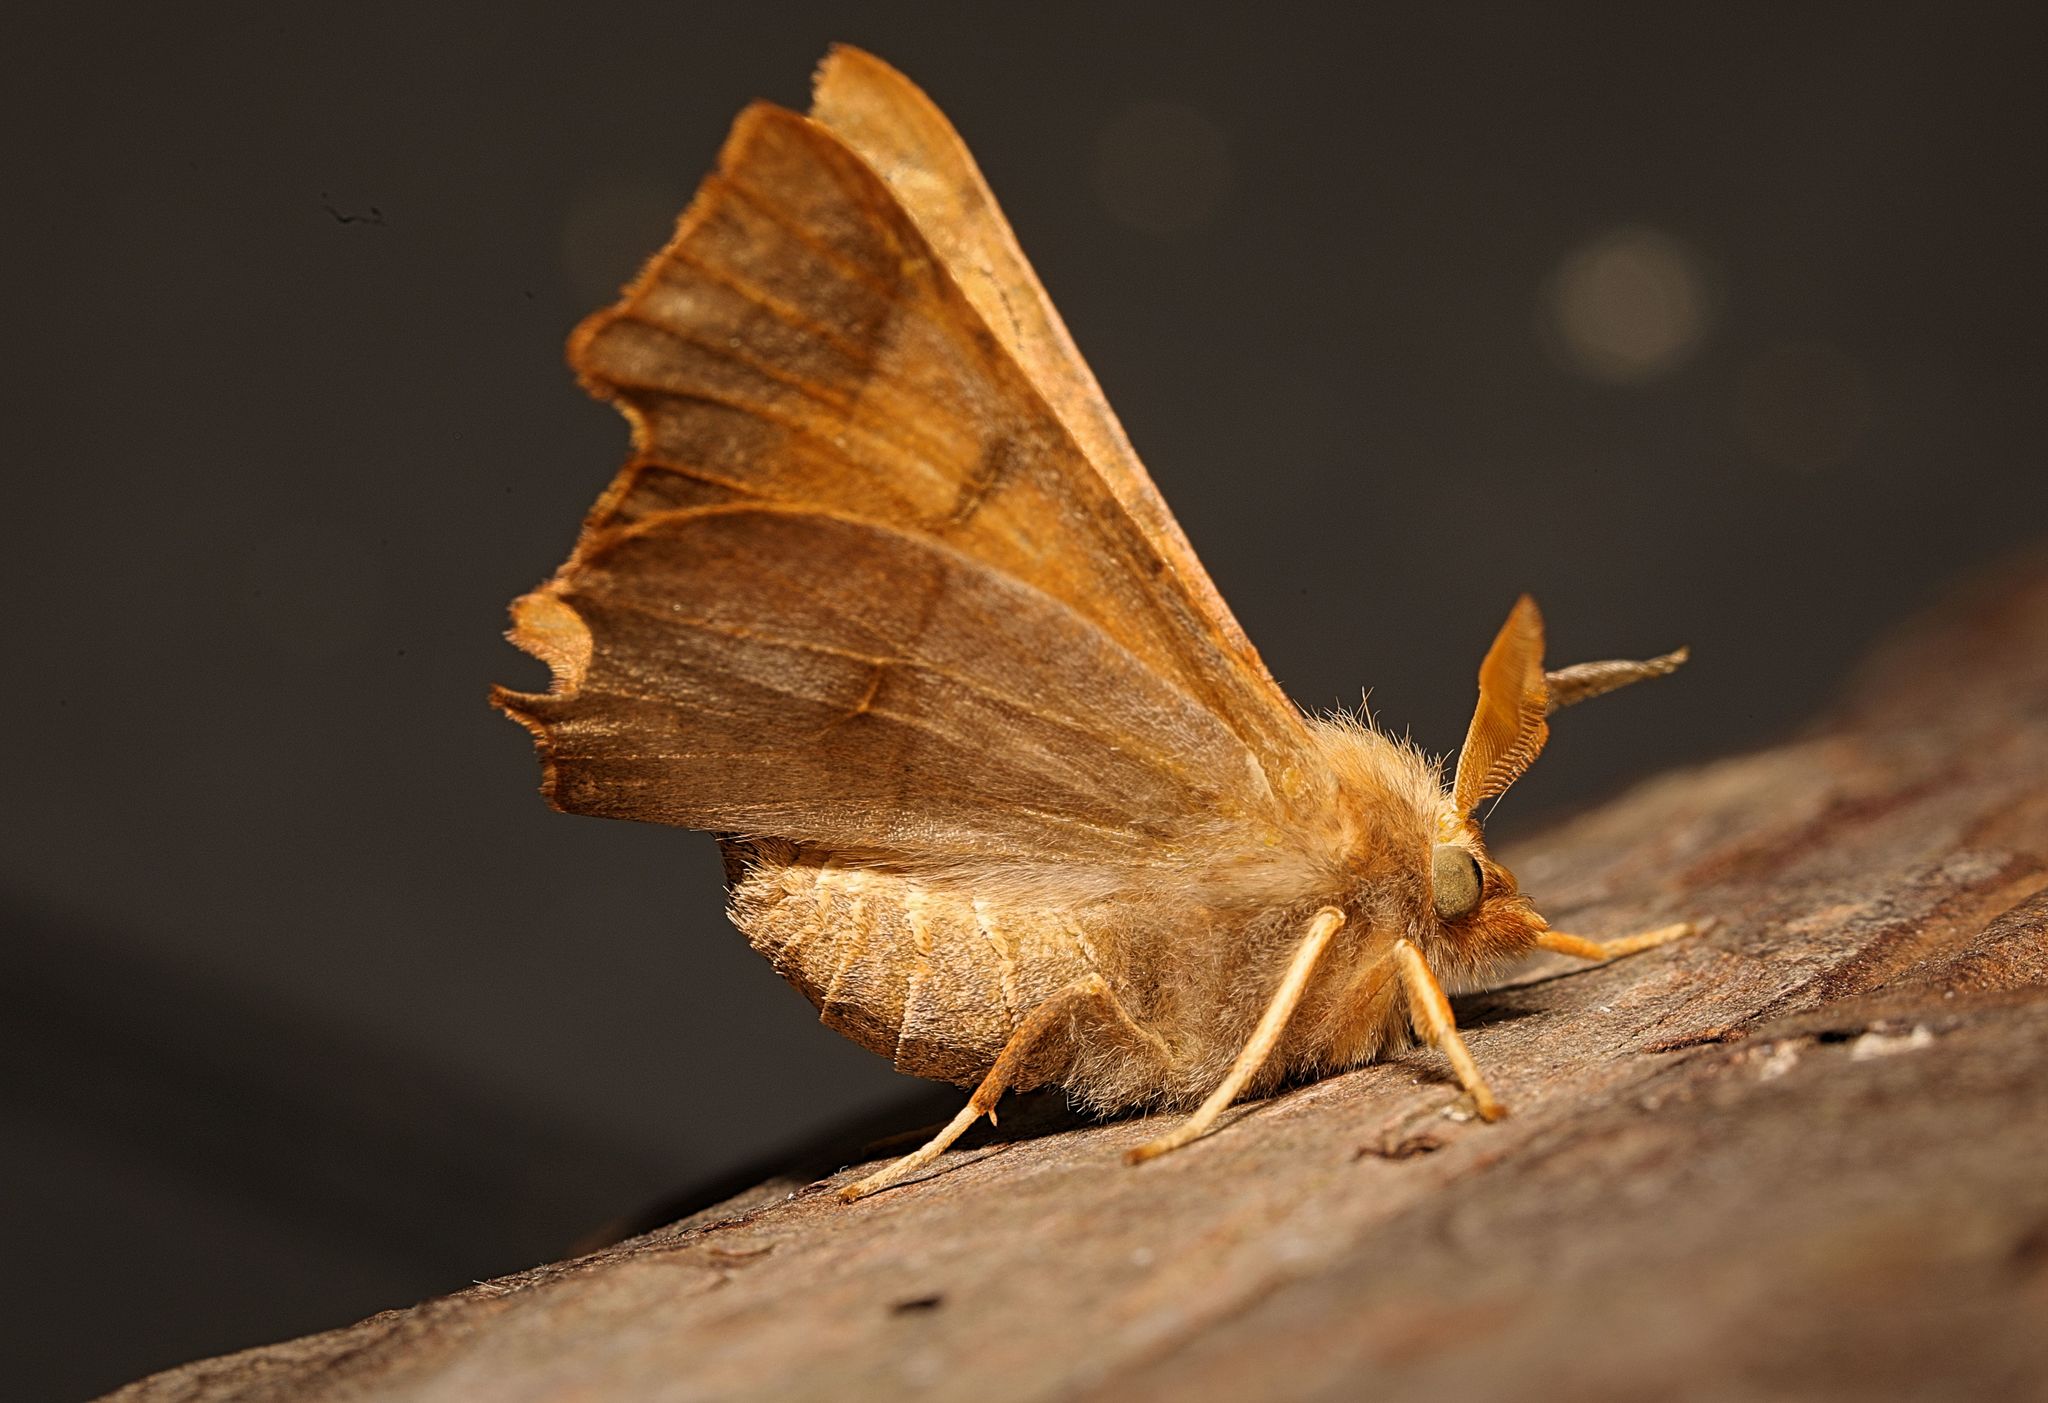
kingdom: Animalia
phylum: Arthropoda
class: Insecta
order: Lepidoptera
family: Geometridae
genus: Ennomos
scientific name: Ennomos fuscantaria
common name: Dusky thorn
